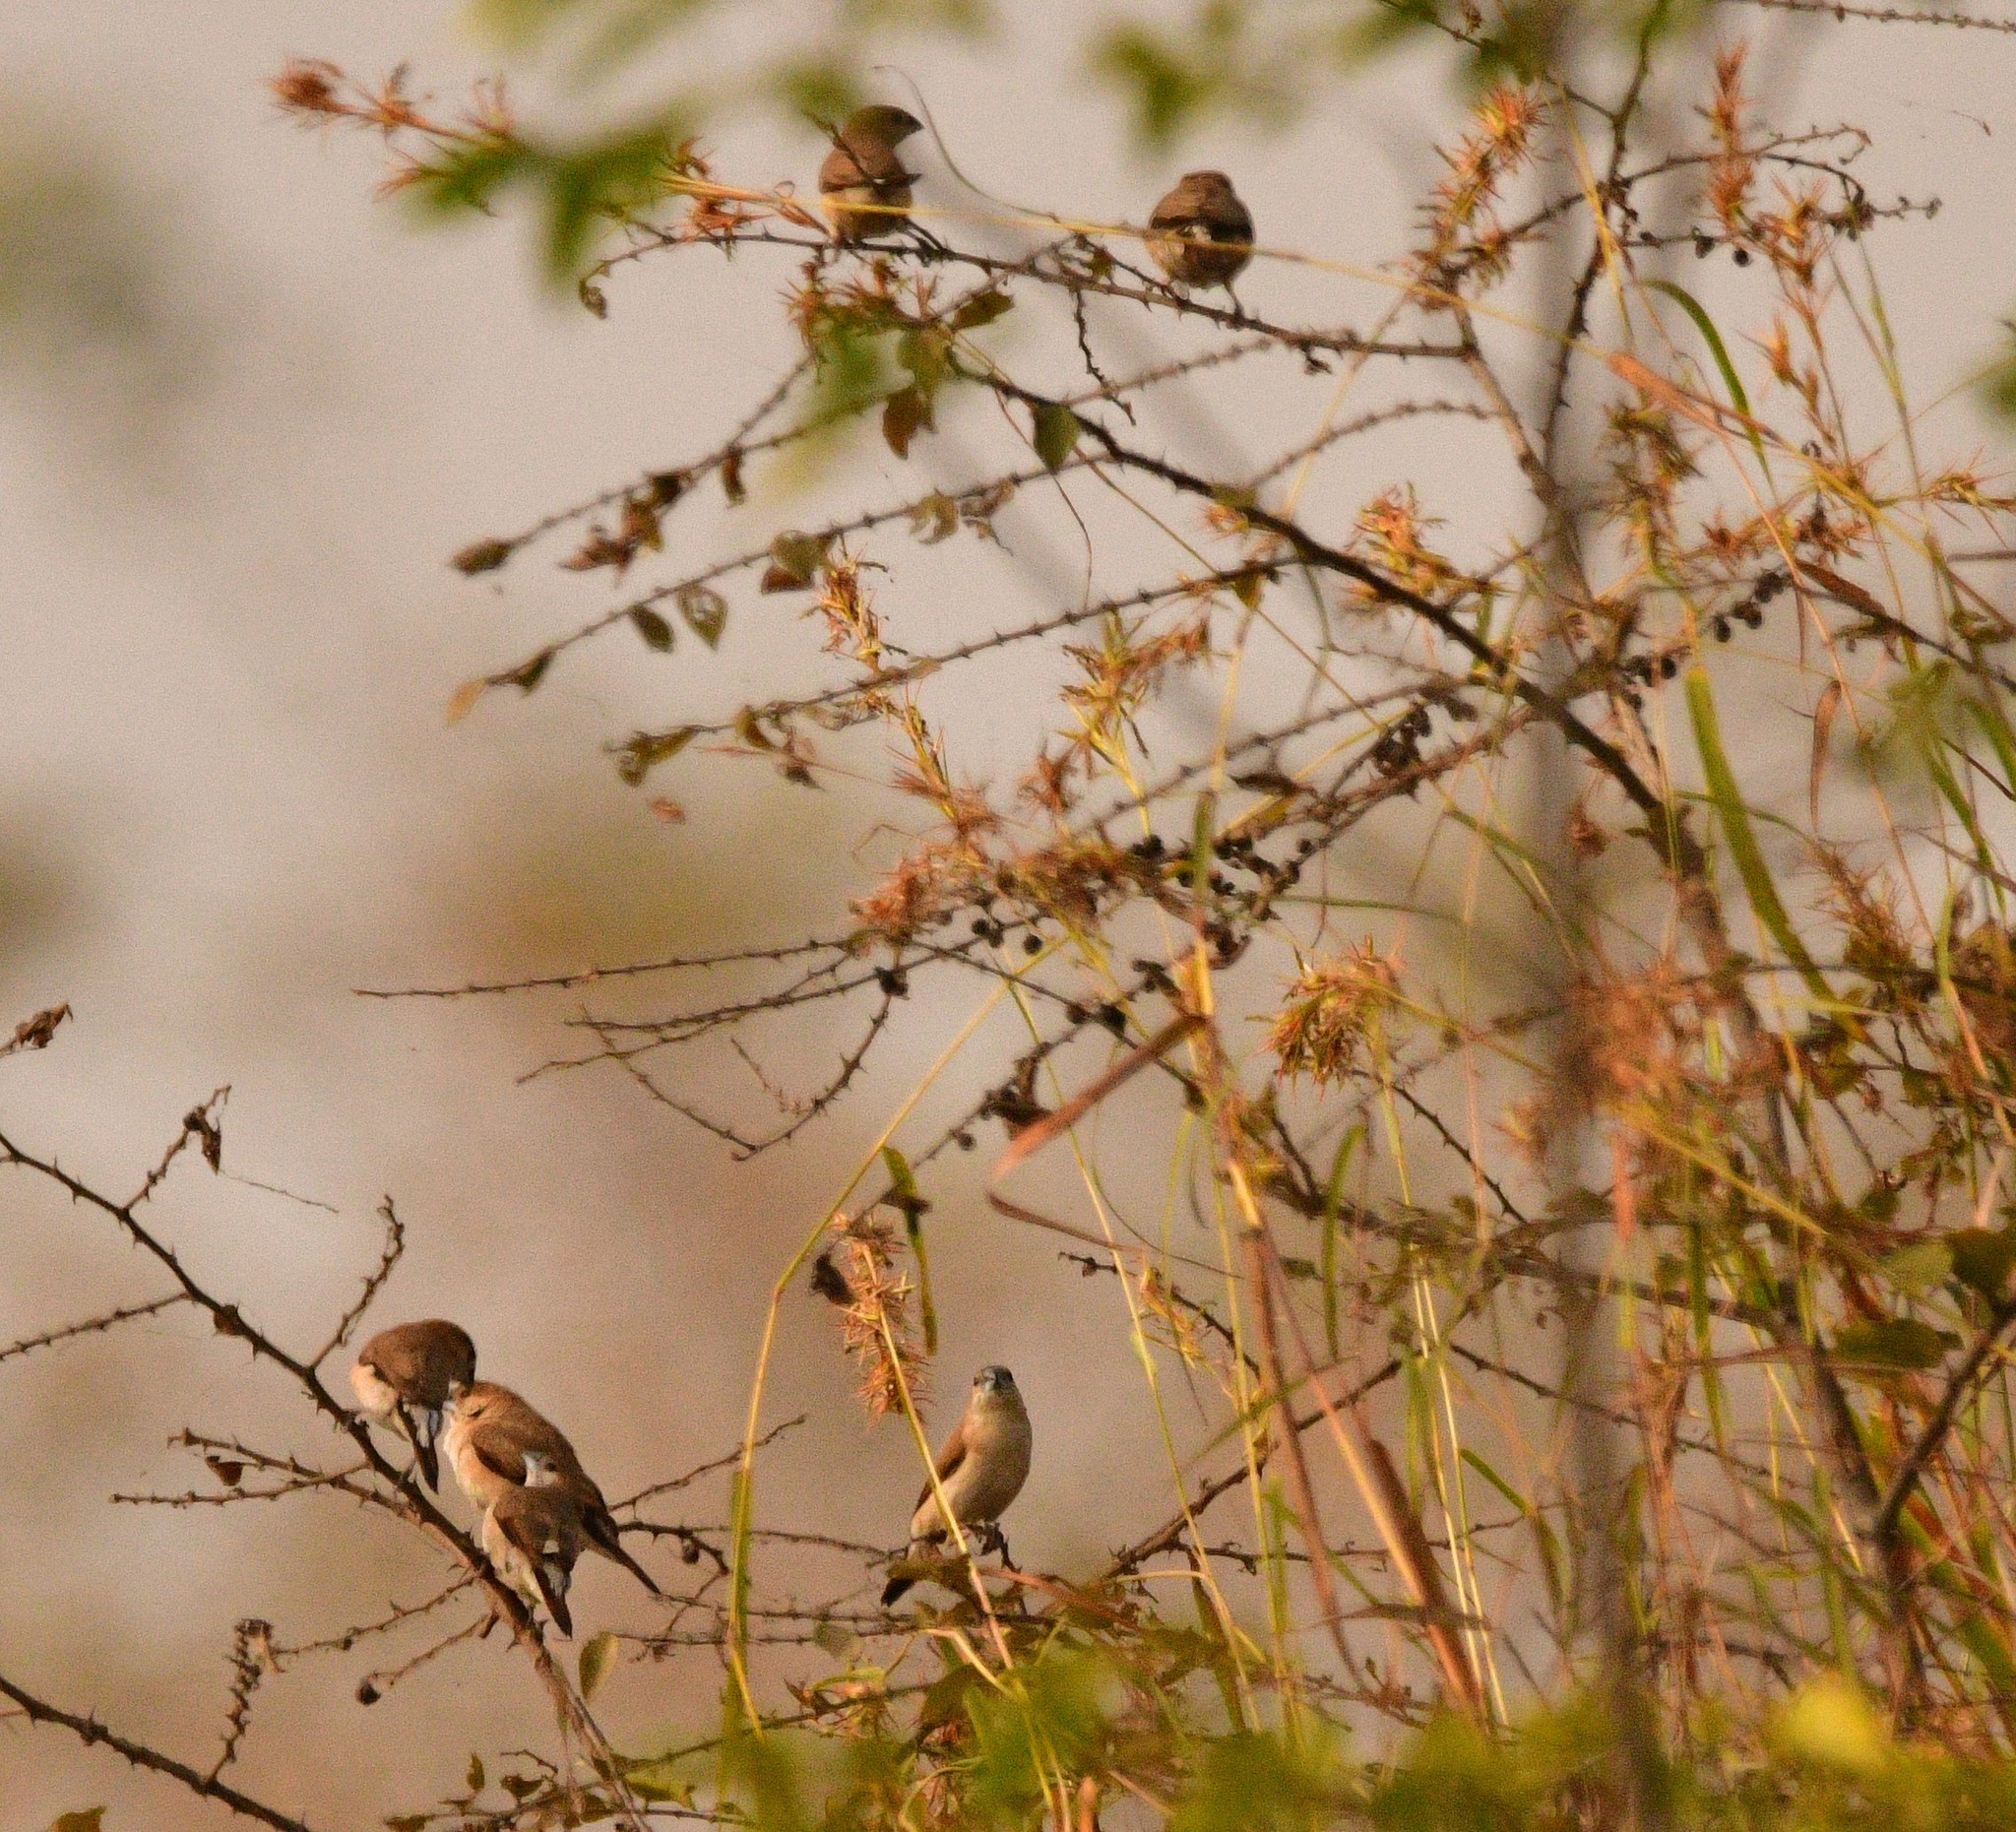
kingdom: Animalia
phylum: Chordata
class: Aves
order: Passeriformes
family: Estrildidae
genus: Euodice
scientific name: Euodice malabarica
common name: Indian silverbill
